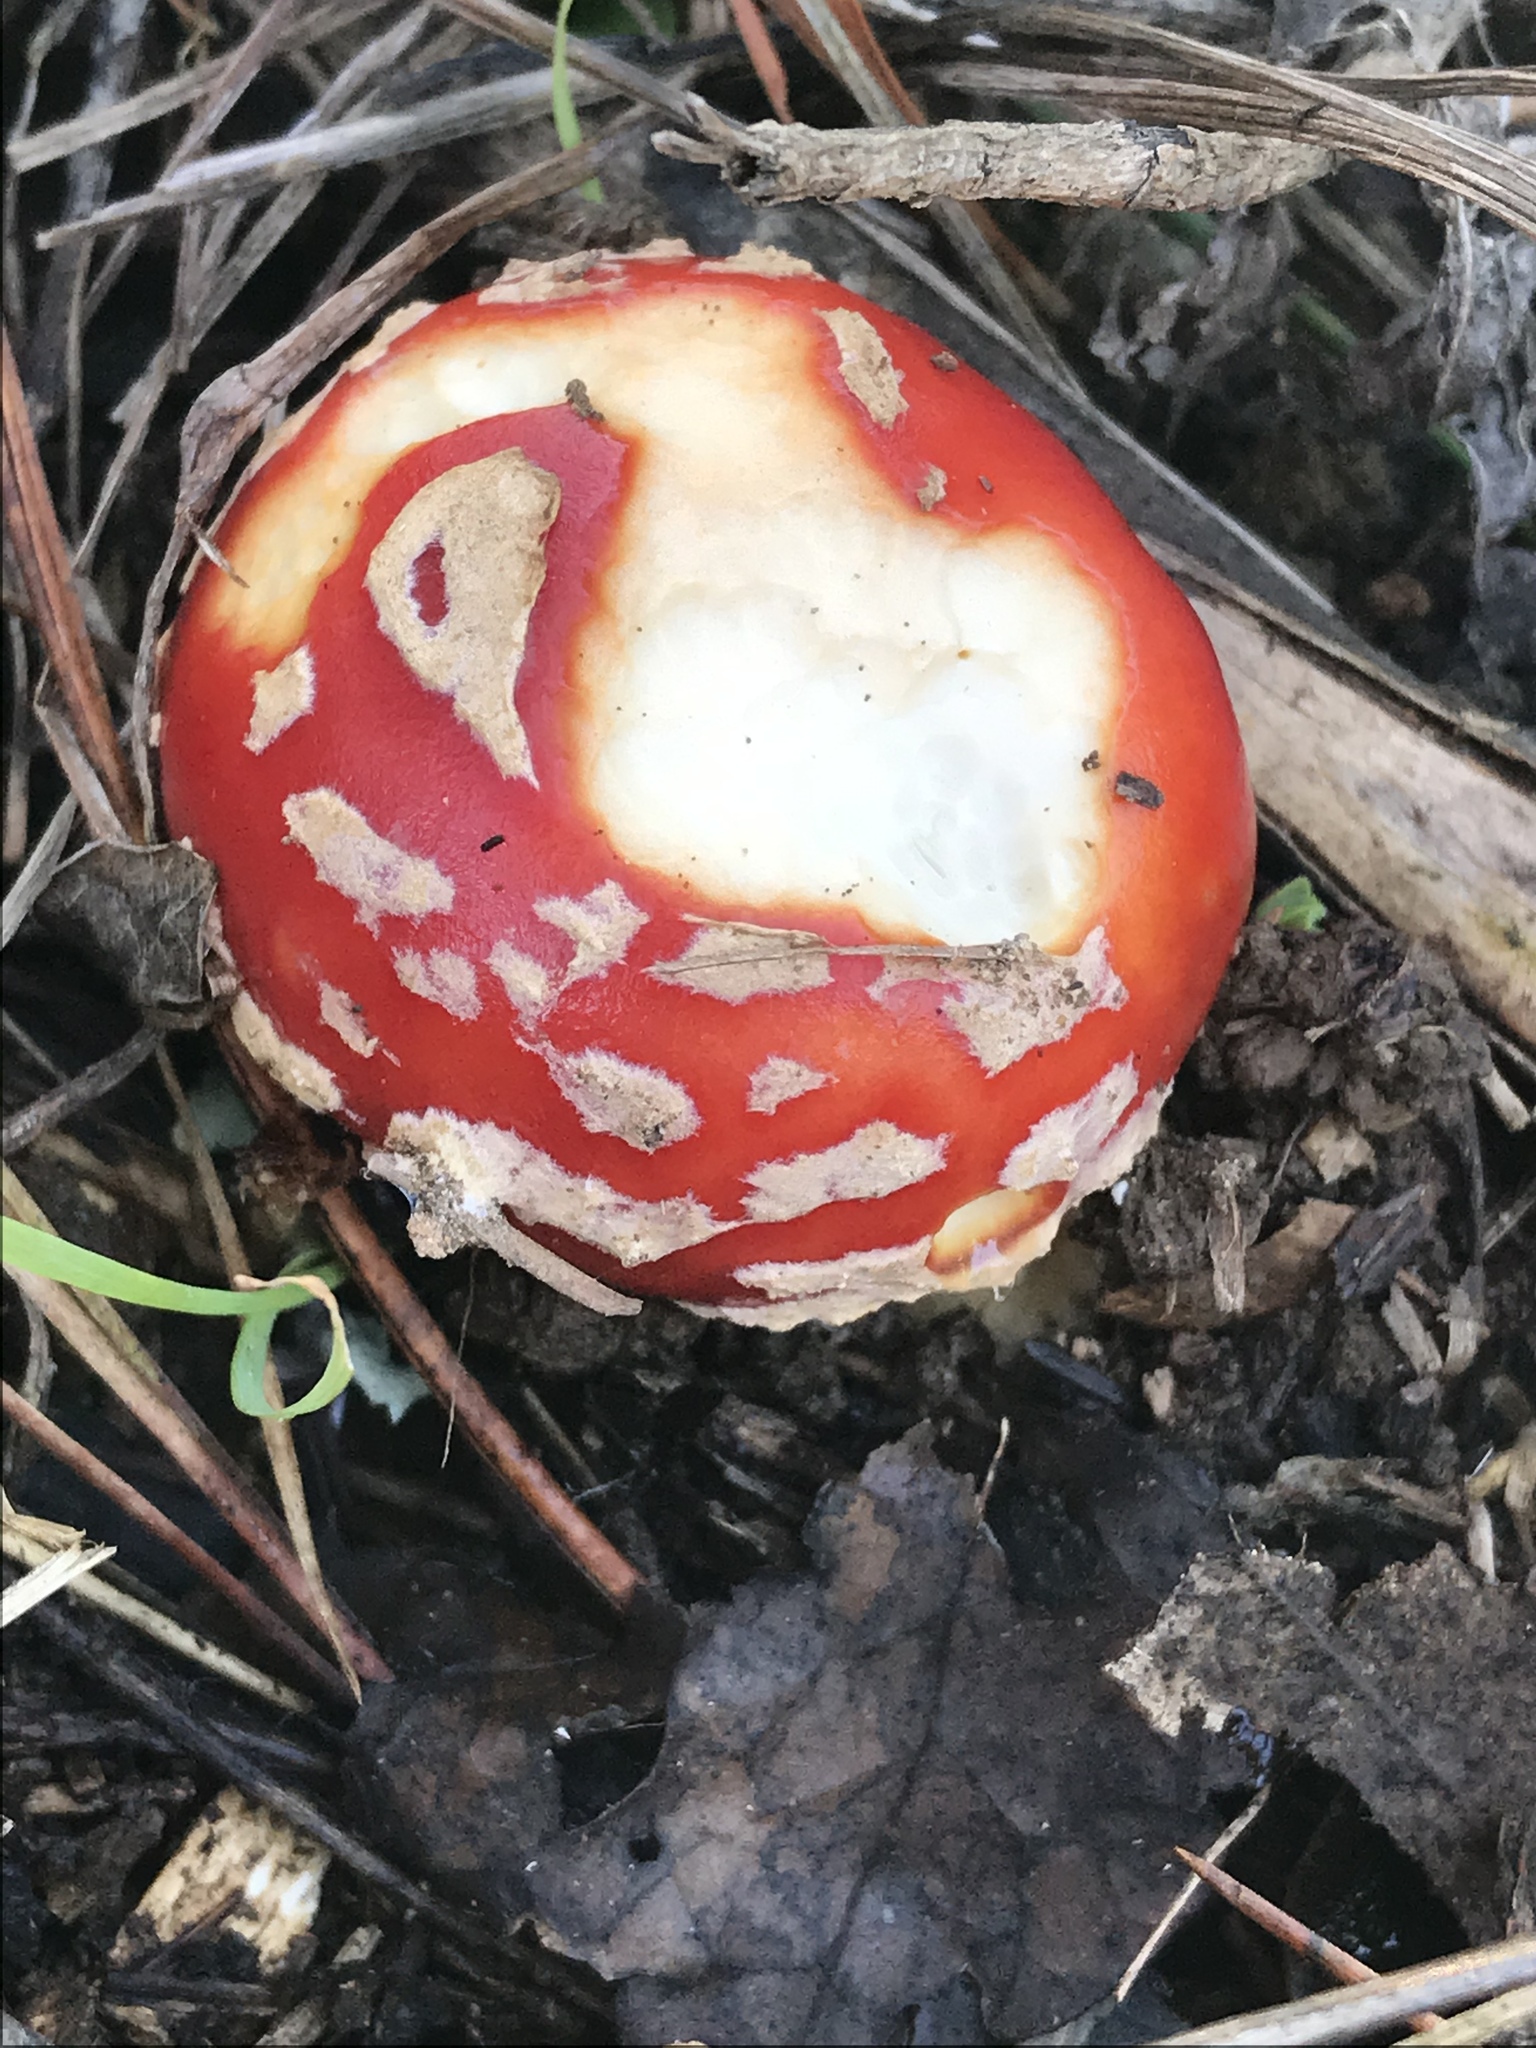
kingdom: Fungi
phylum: Basidiomycota
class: Agaricomycetes
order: Agaricales
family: Amanitaceae
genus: Amanita
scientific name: Amanita muscaria
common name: Fly agaric
